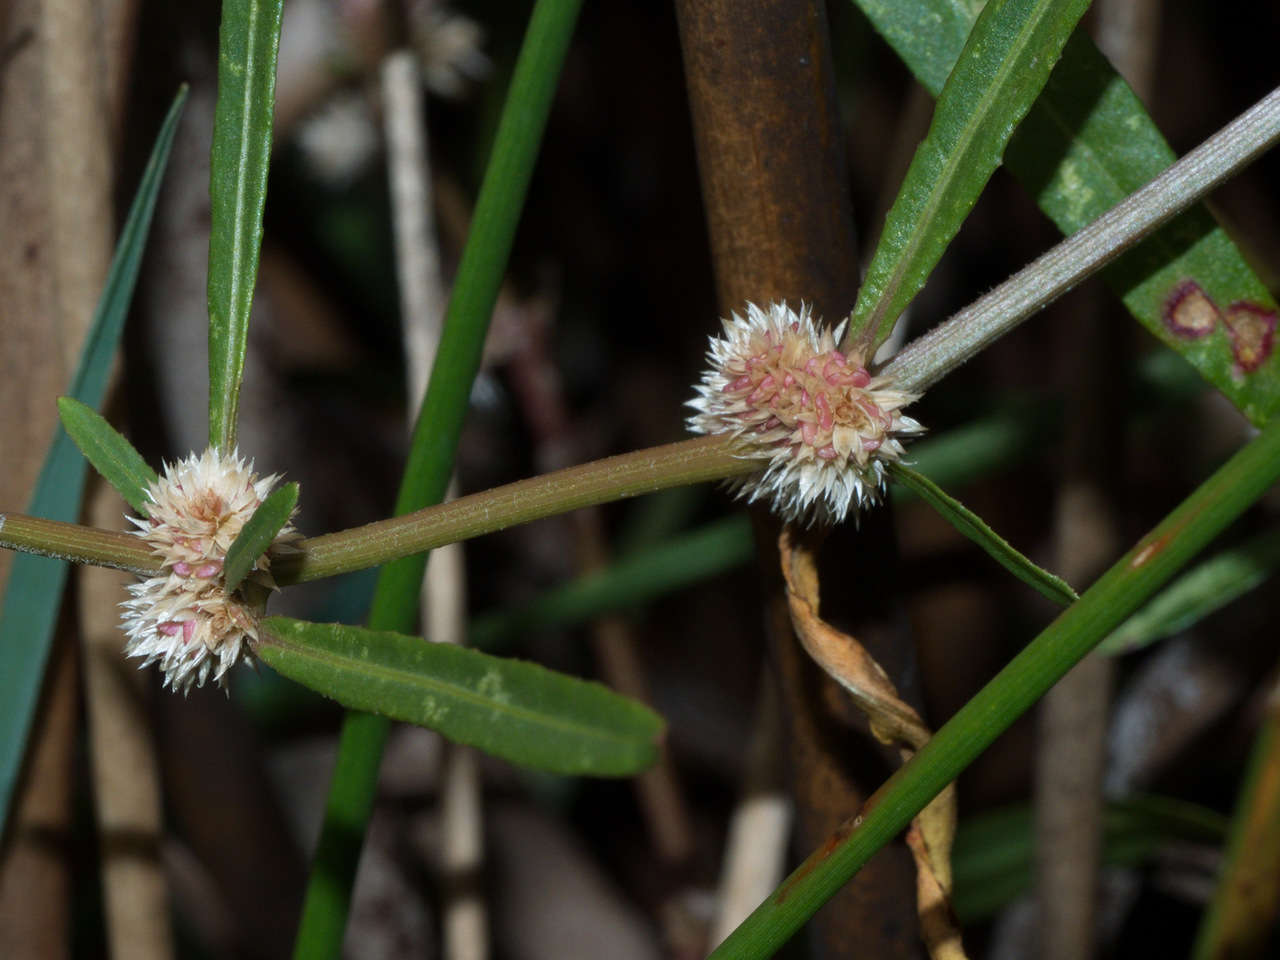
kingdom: Plantae
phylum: Tracheophyta
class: Magnoliopsida
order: Caryophyllales
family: Amaranthaceae
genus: Alternanthera
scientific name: Alternanthera denticulata
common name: Lesser joyweed
